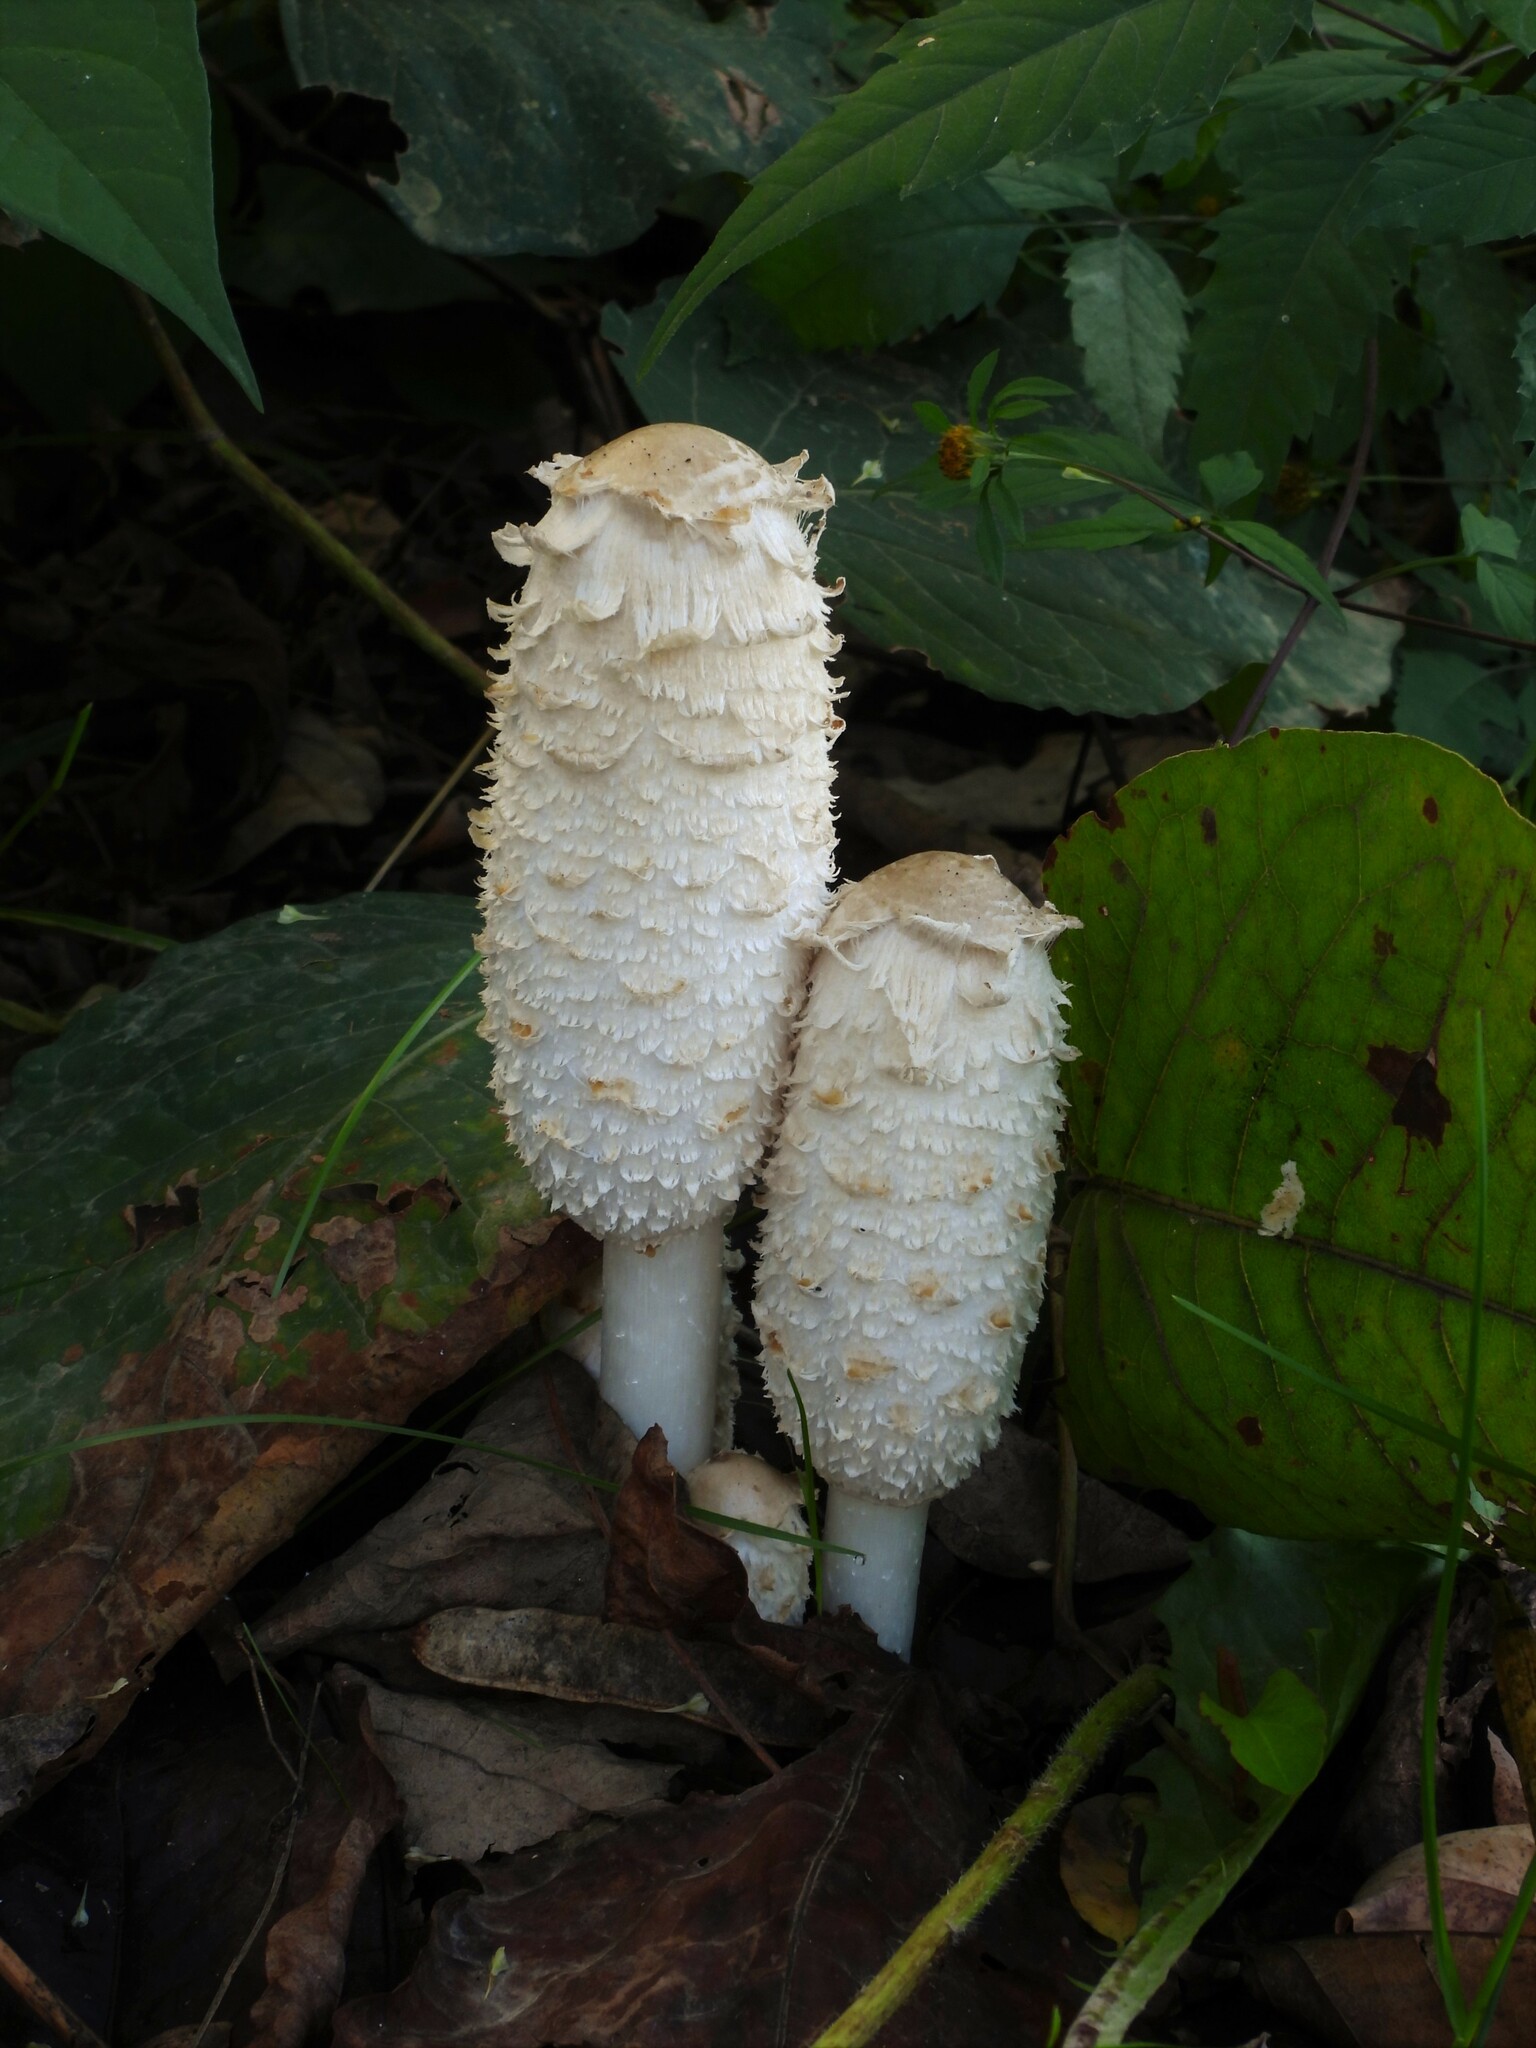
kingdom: Fungi
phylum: Basidiomycota
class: Agaricomycetes
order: Agaricales
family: Agaricaceae
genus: Coprinus
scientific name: Coprinus comatus
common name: Lawyer's wig
